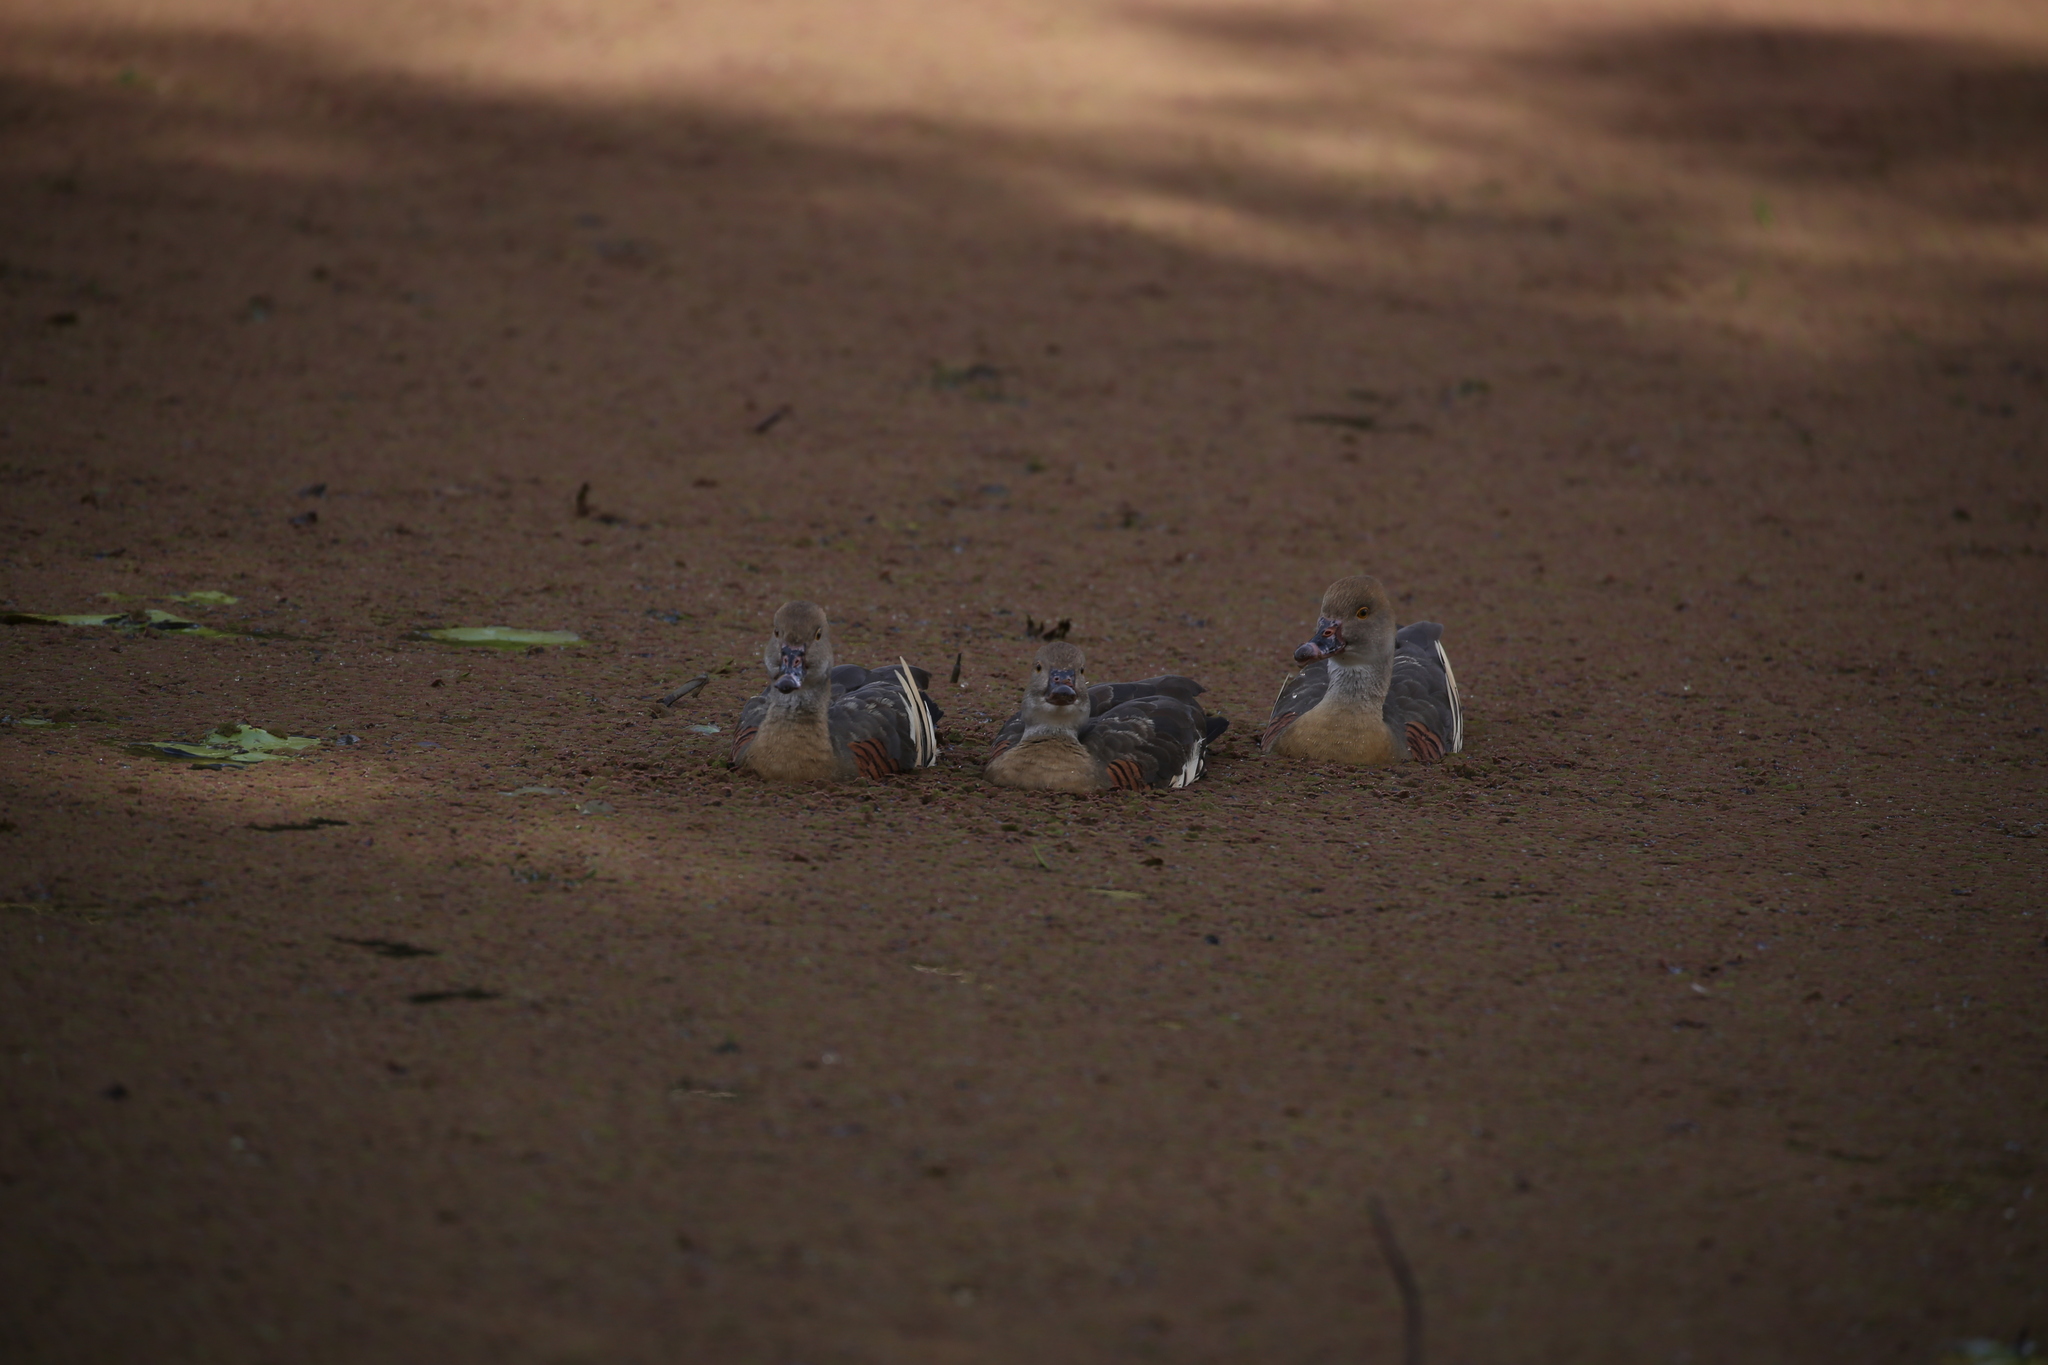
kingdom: Animalia
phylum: Chordata
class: Aves
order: Anseriformes
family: Anatidae
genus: Dendrocygna
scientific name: Dendrocygna eytoni
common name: Plumed whistling-duck
